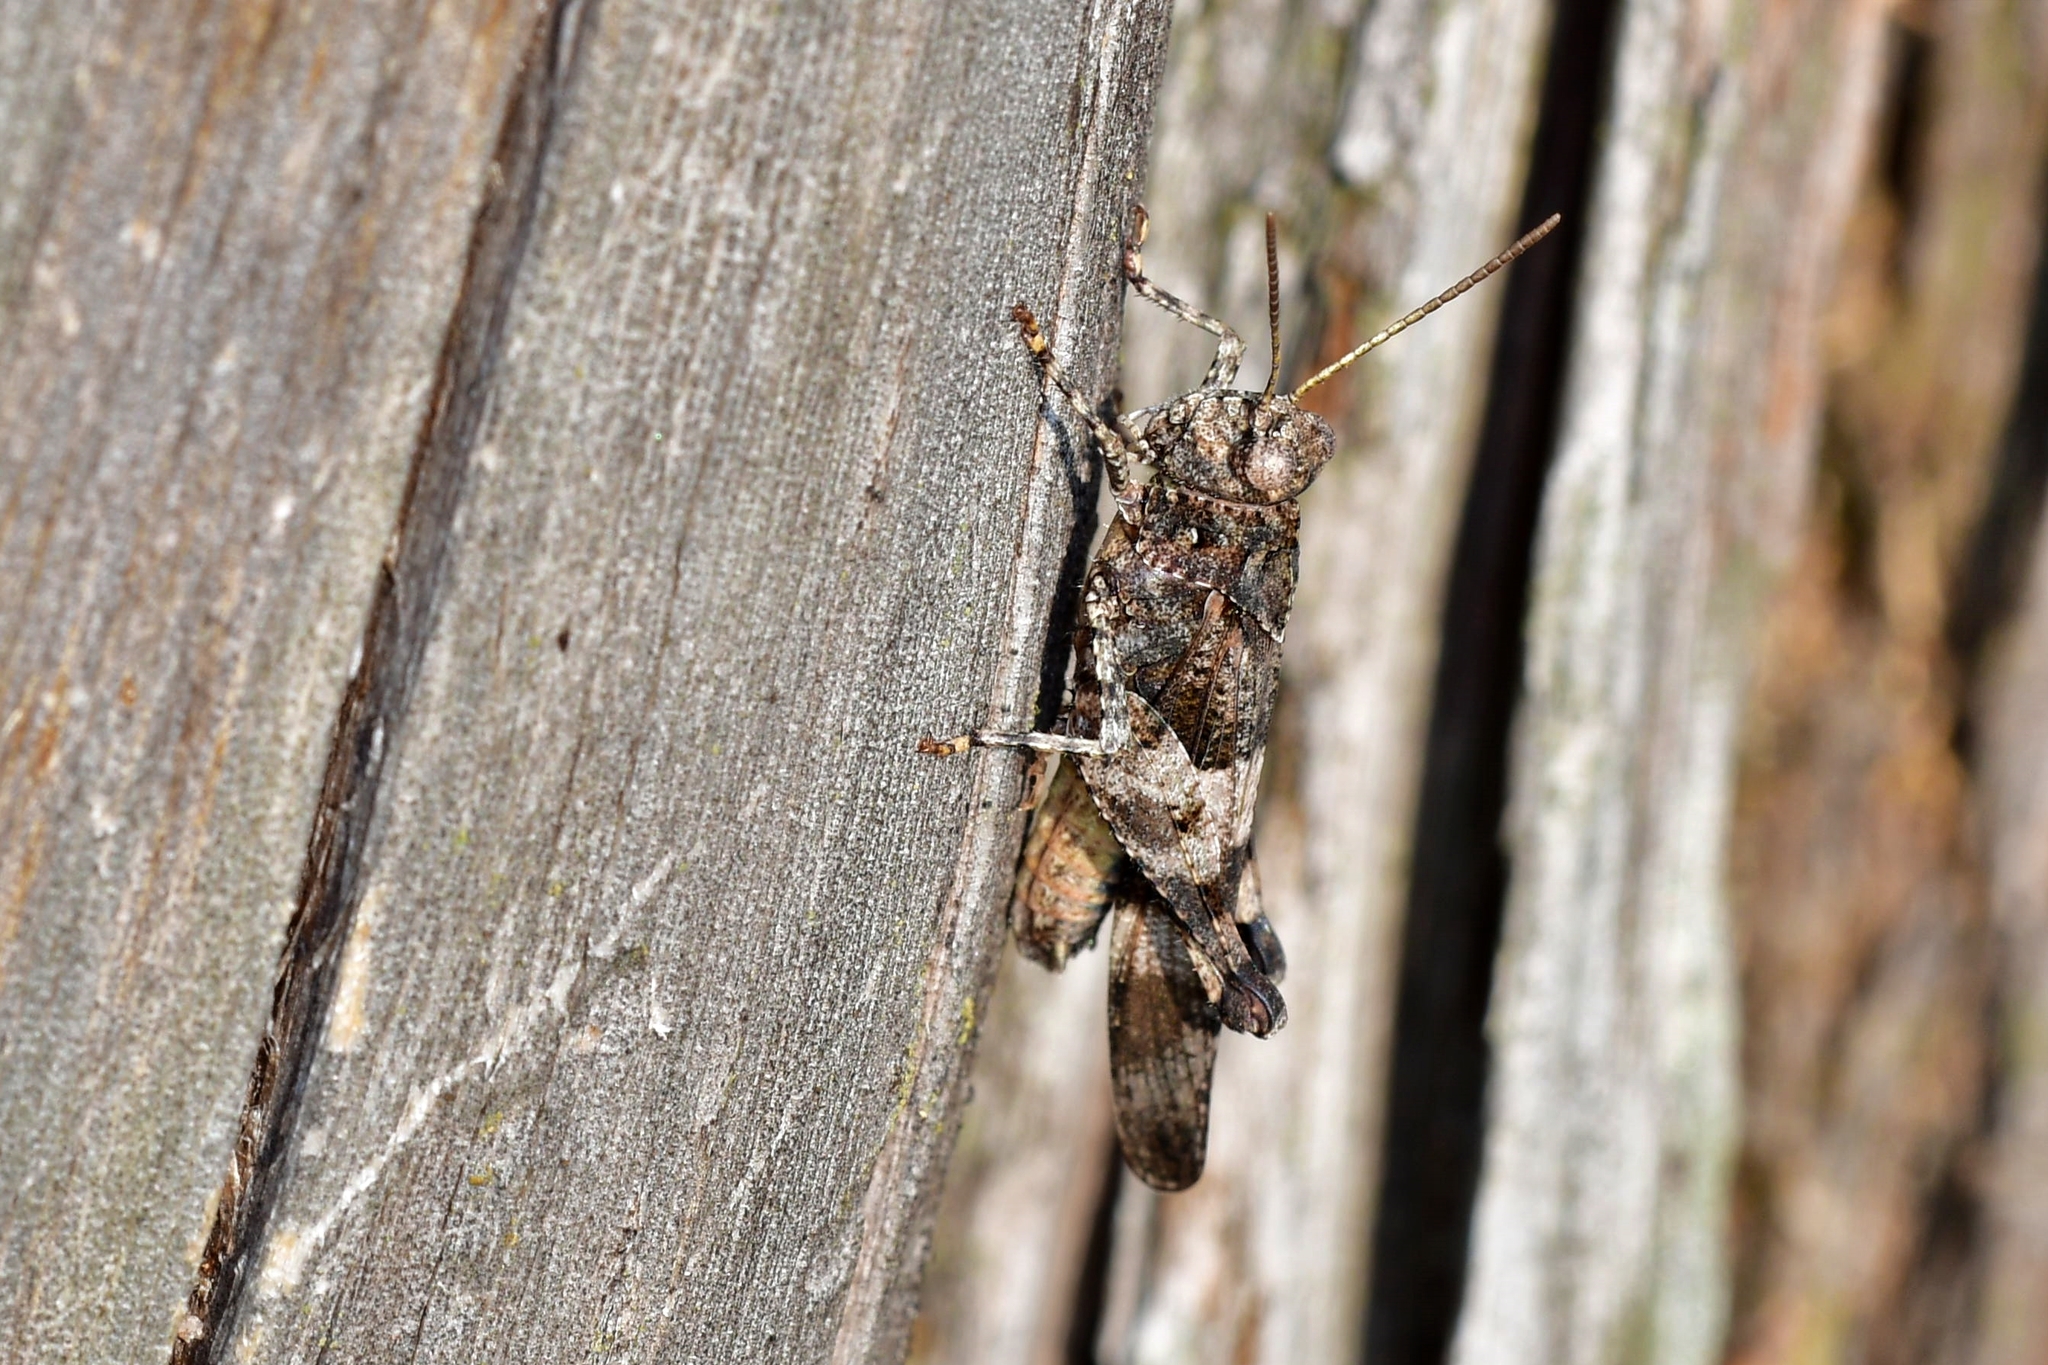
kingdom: Animalia
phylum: Arthropoda
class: Insecta
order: Orthoptera
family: Acrididae
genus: Oedipoda
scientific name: Oedipoda caerulescens
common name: Blue-winged grasshopper
